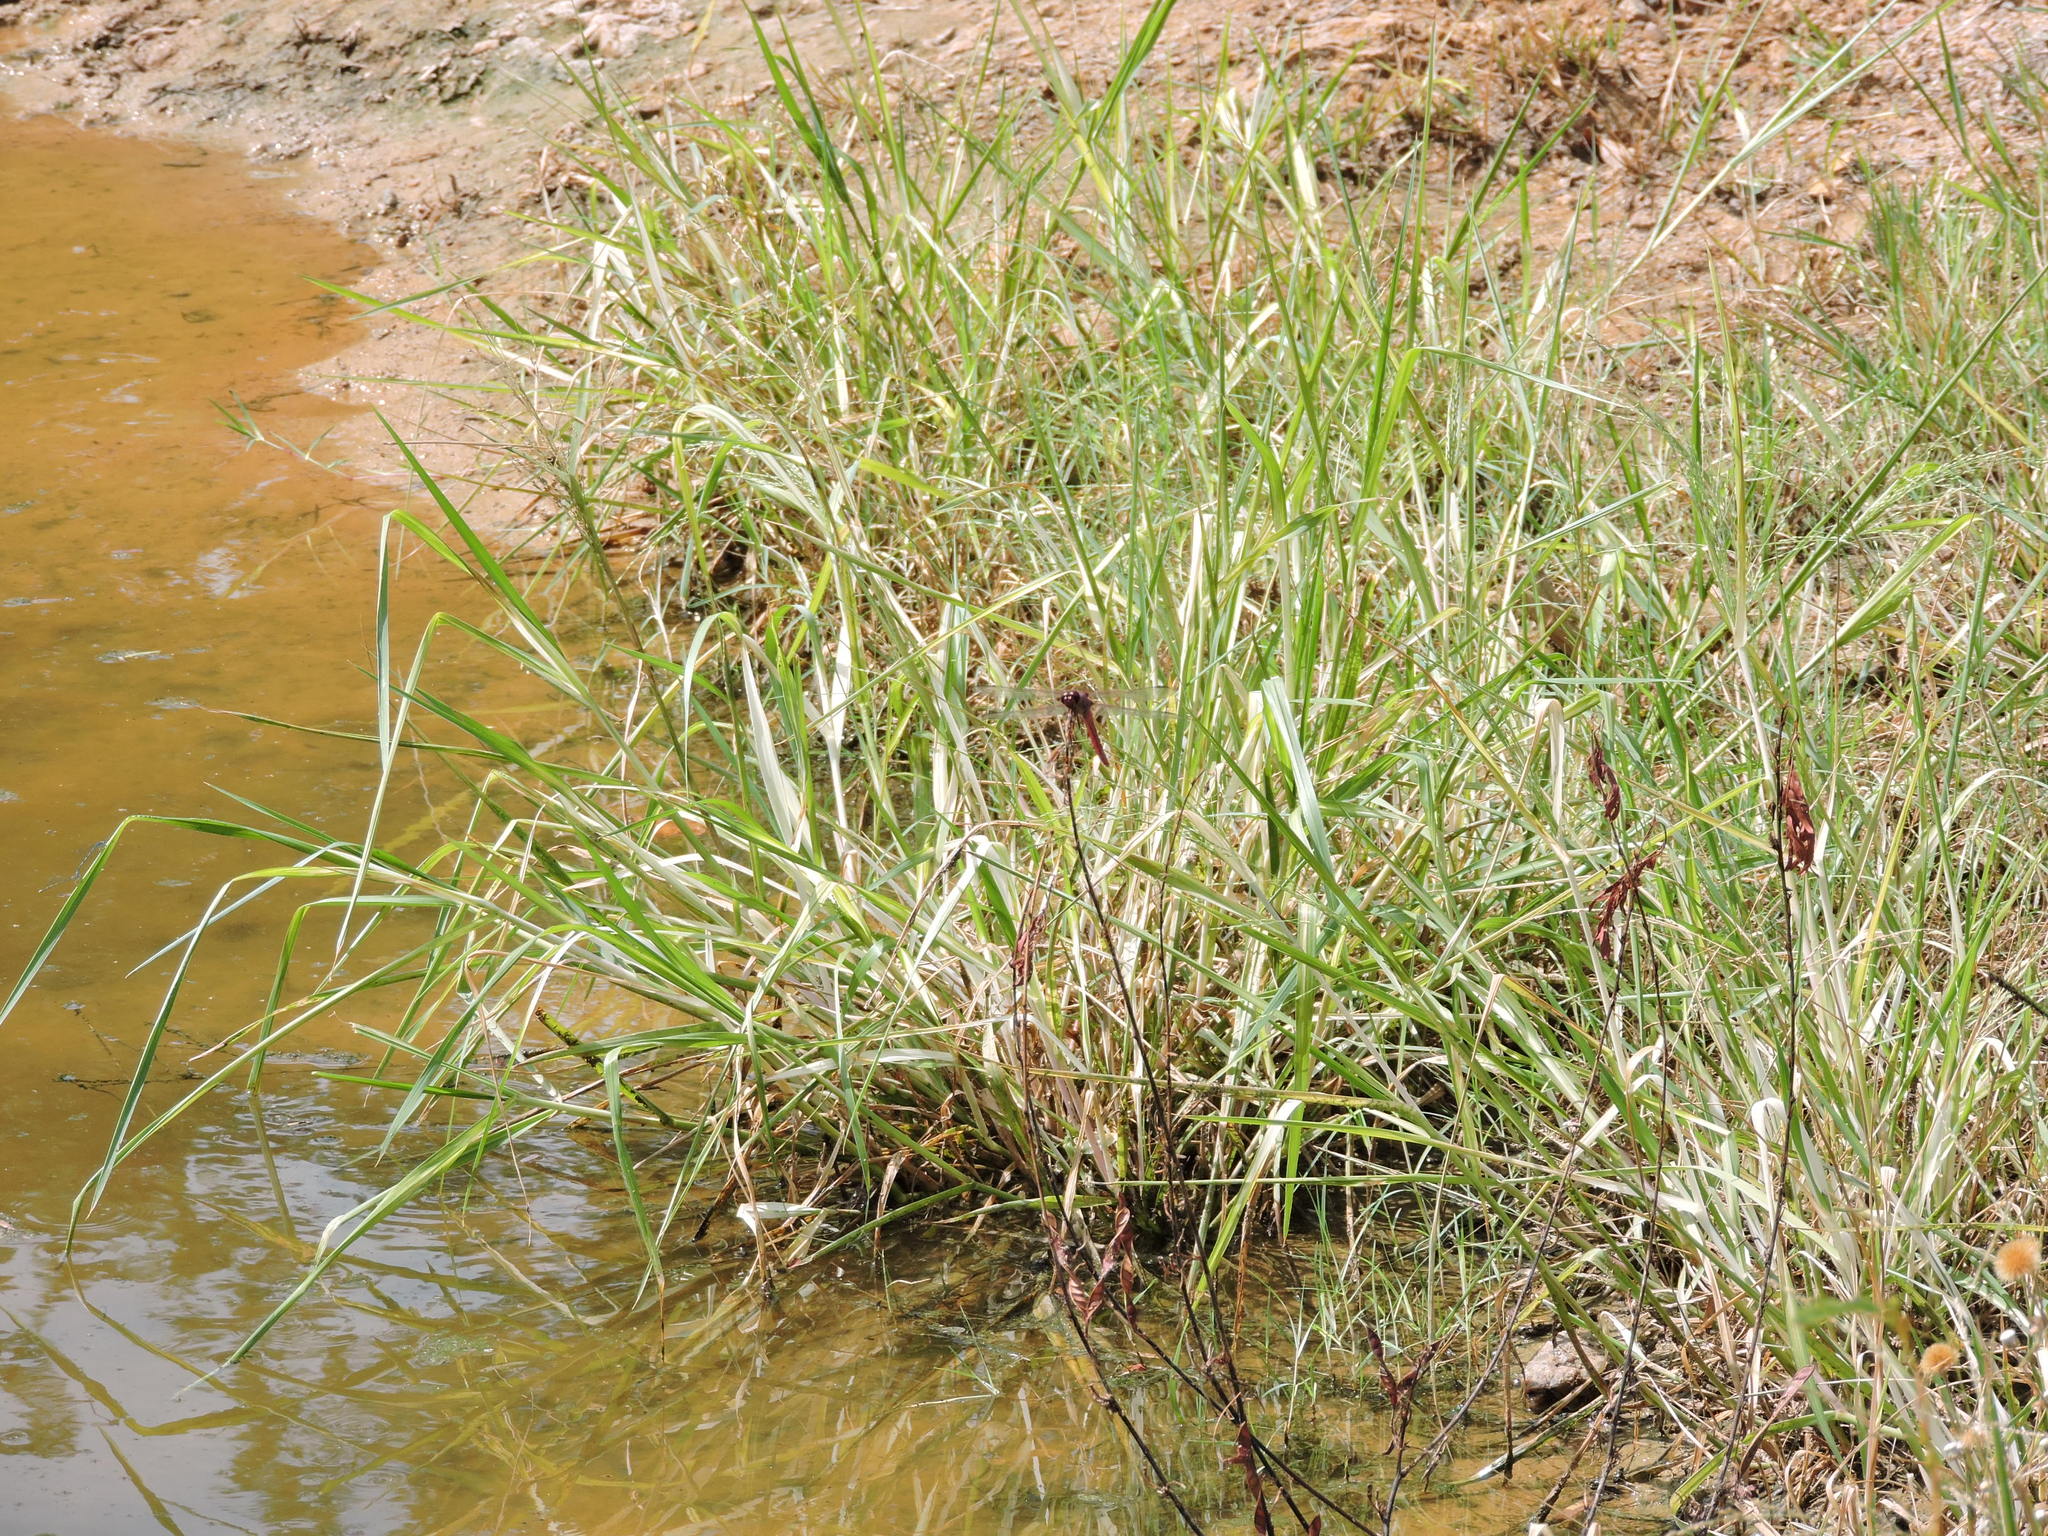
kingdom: Animalia
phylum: Arthropoda
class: Insecta
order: Odonata
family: Libellulidae
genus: Orthemis
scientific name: Orthemis ferruginea
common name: Roseate skimmer
